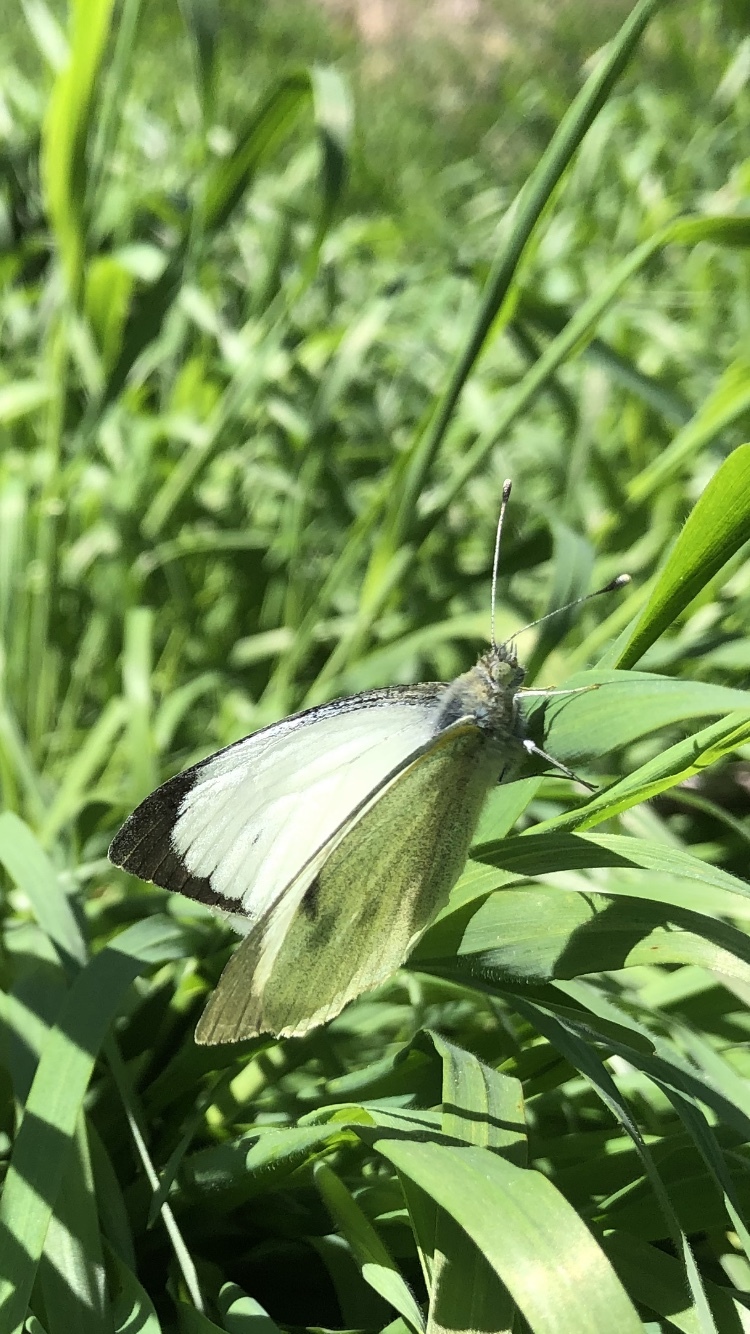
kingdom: Animalia
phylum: Arthropoda
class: Insecta
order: Lepidoptera
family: Pieridae
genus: Pieris
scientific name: Pieris brassicae
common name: Large white
